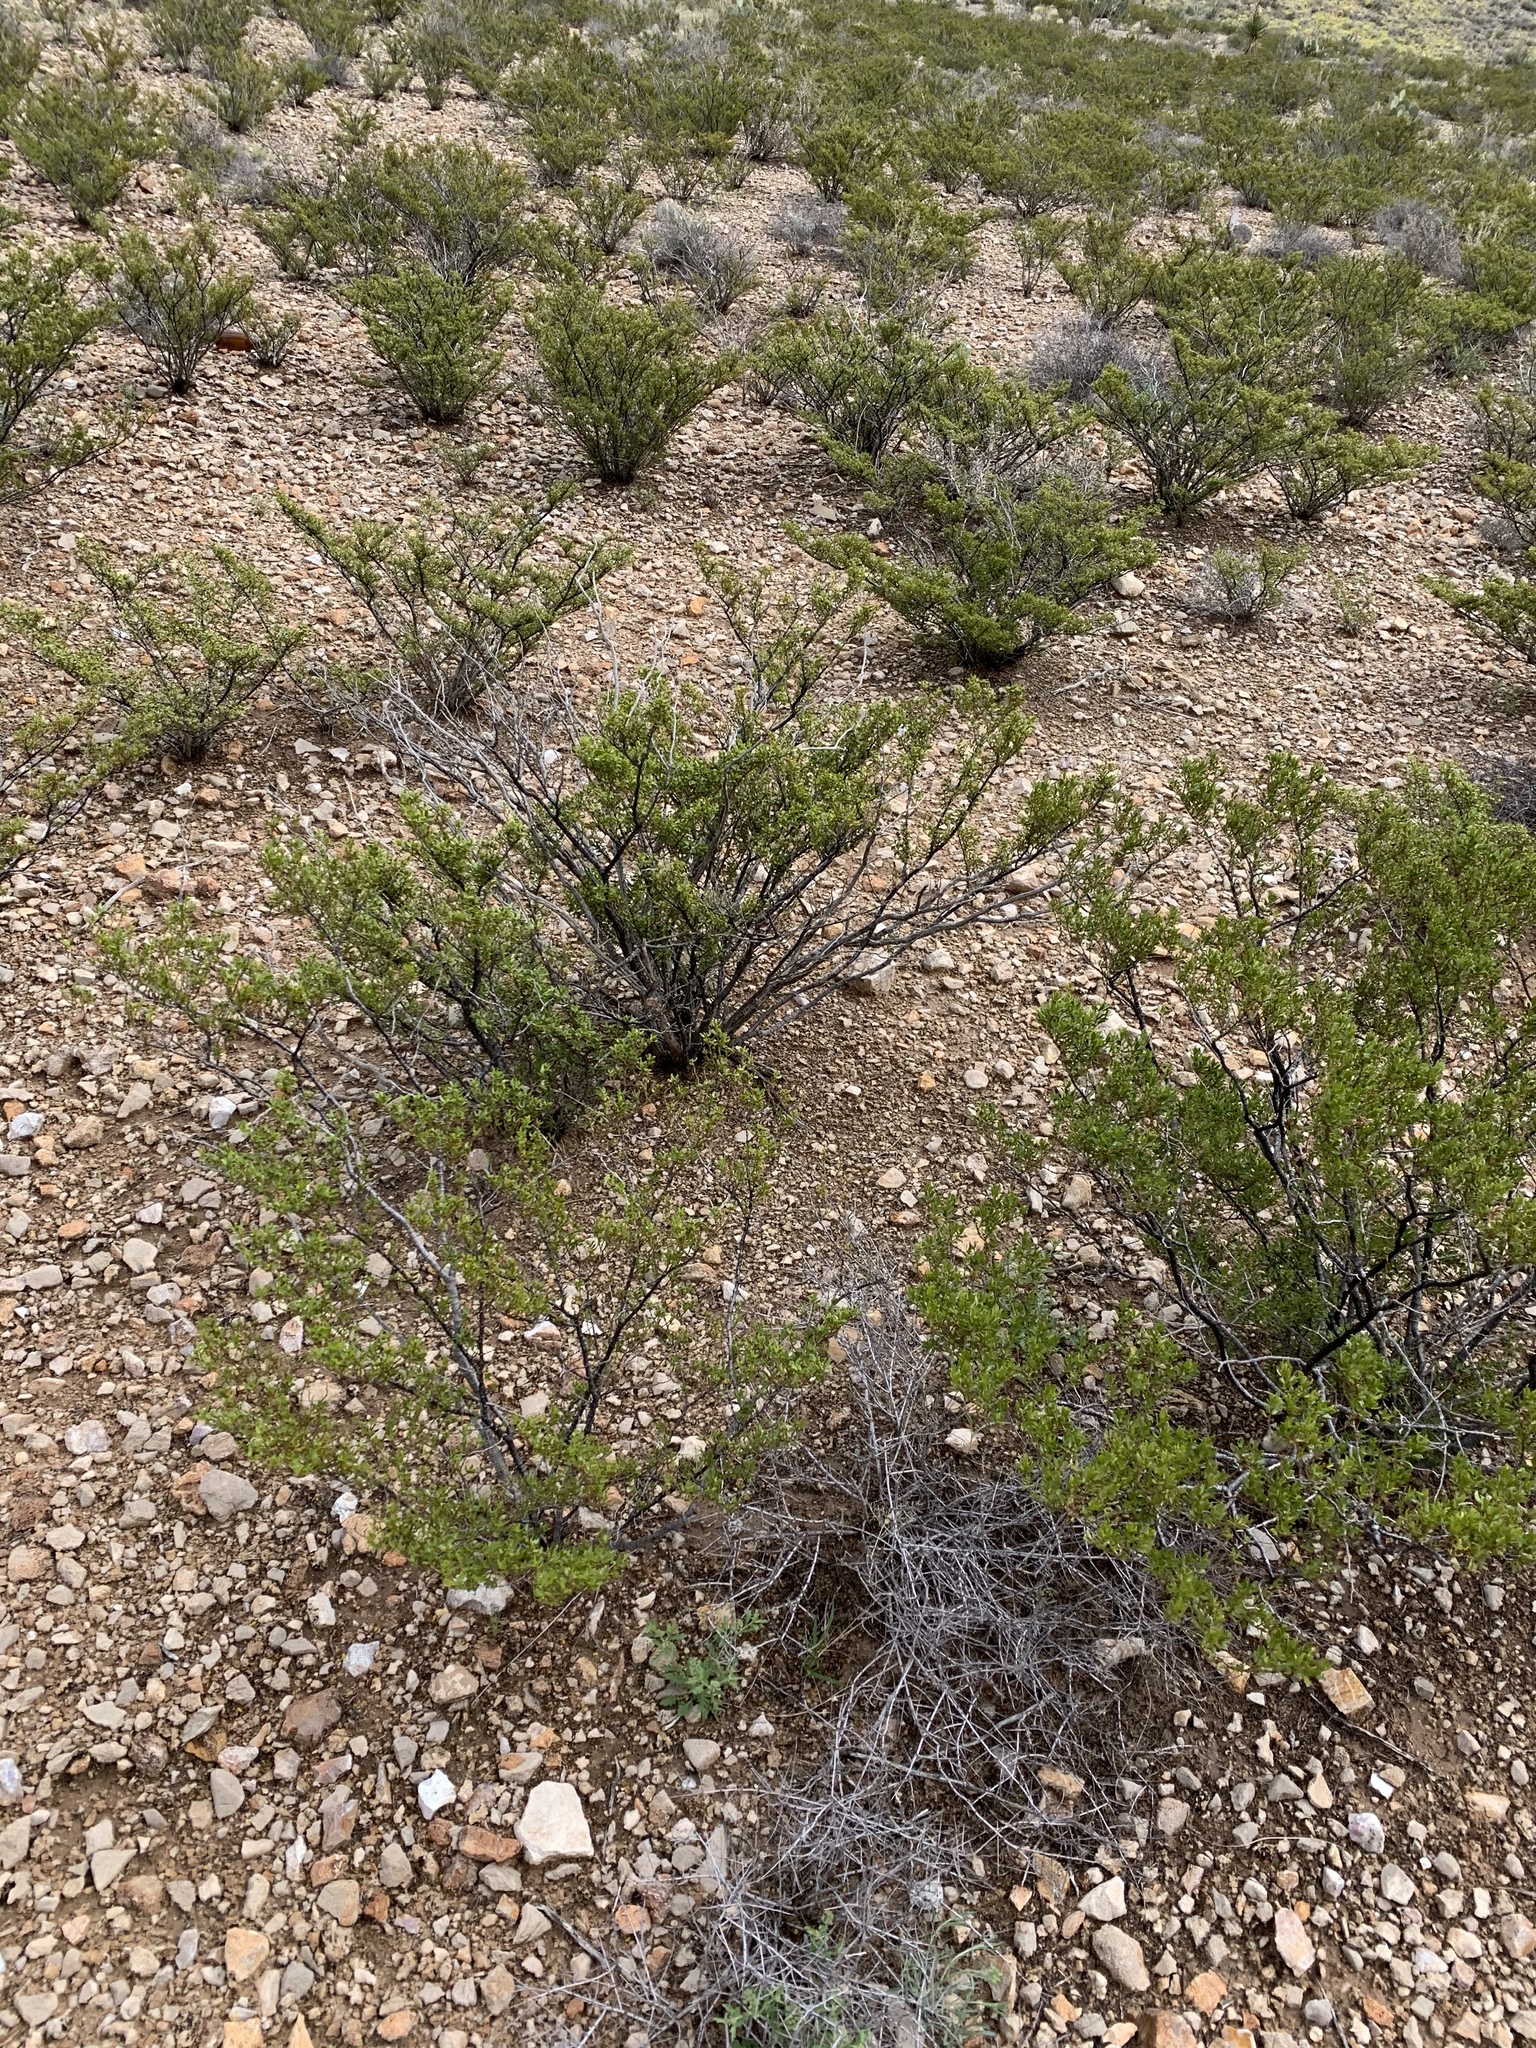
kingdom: Plantae
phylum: Tracheophyta
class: Magnoliopsida
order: Zygophyllales
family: Zygophyllaceae
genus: Larrea
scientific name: Larrea tridentata
